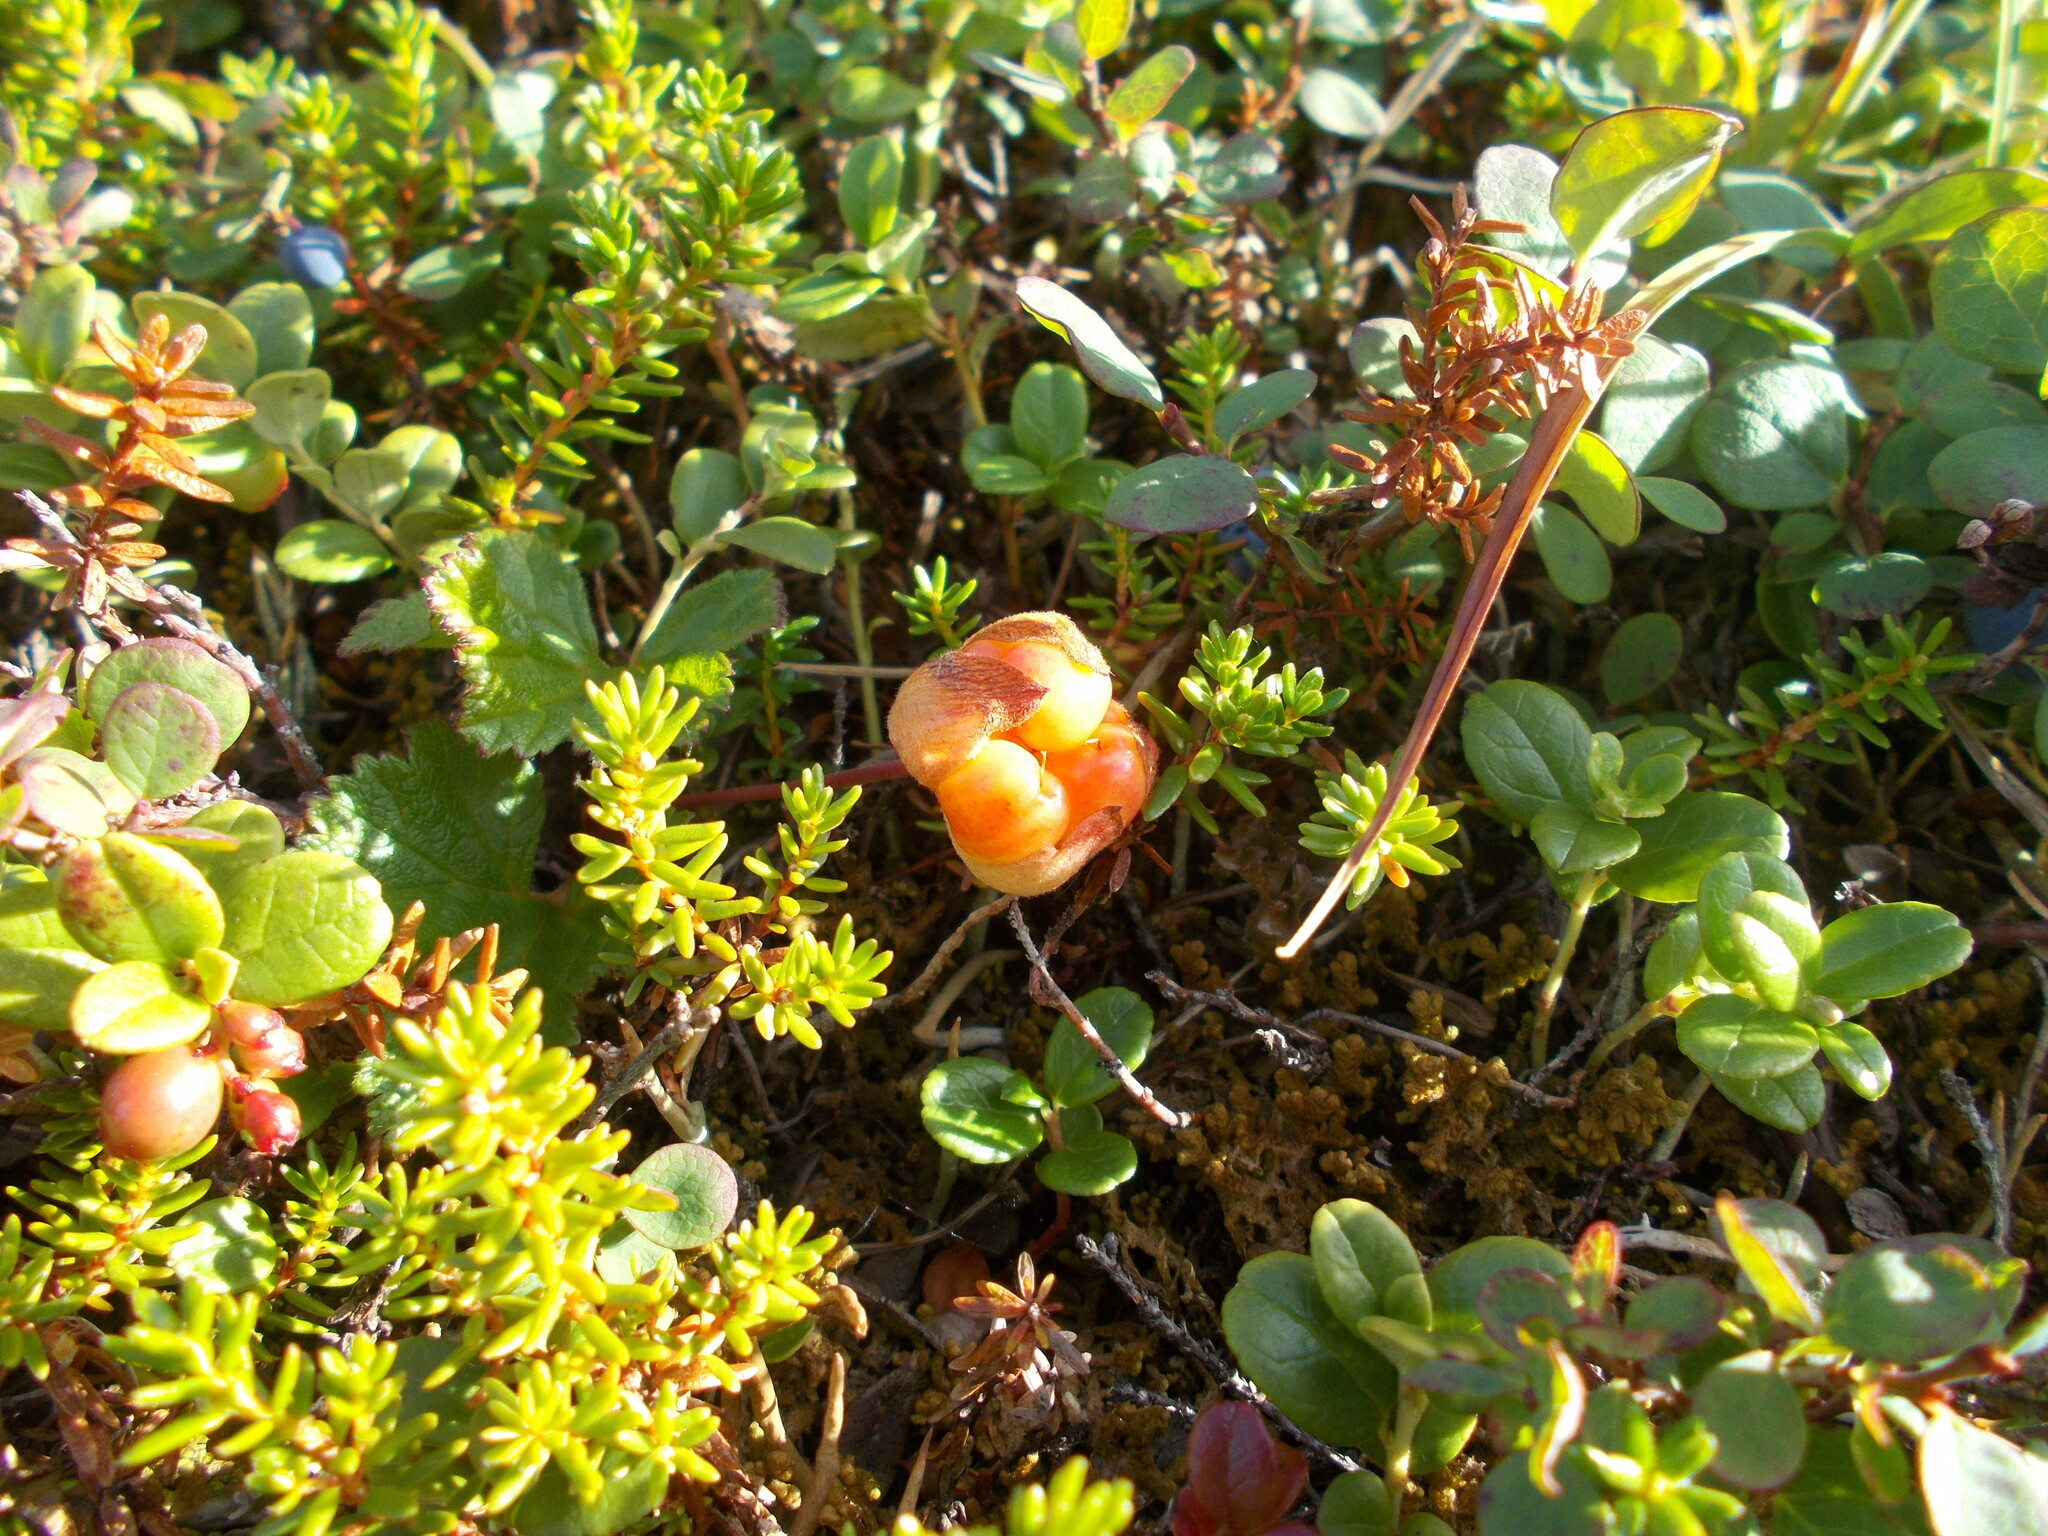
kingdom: Plantae
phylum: Tracheophyta
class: Magnoliopsida
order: Rosales
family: Rosaceae
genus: Rubus
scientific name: Rubus chamaemorus
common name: Cloudberry
